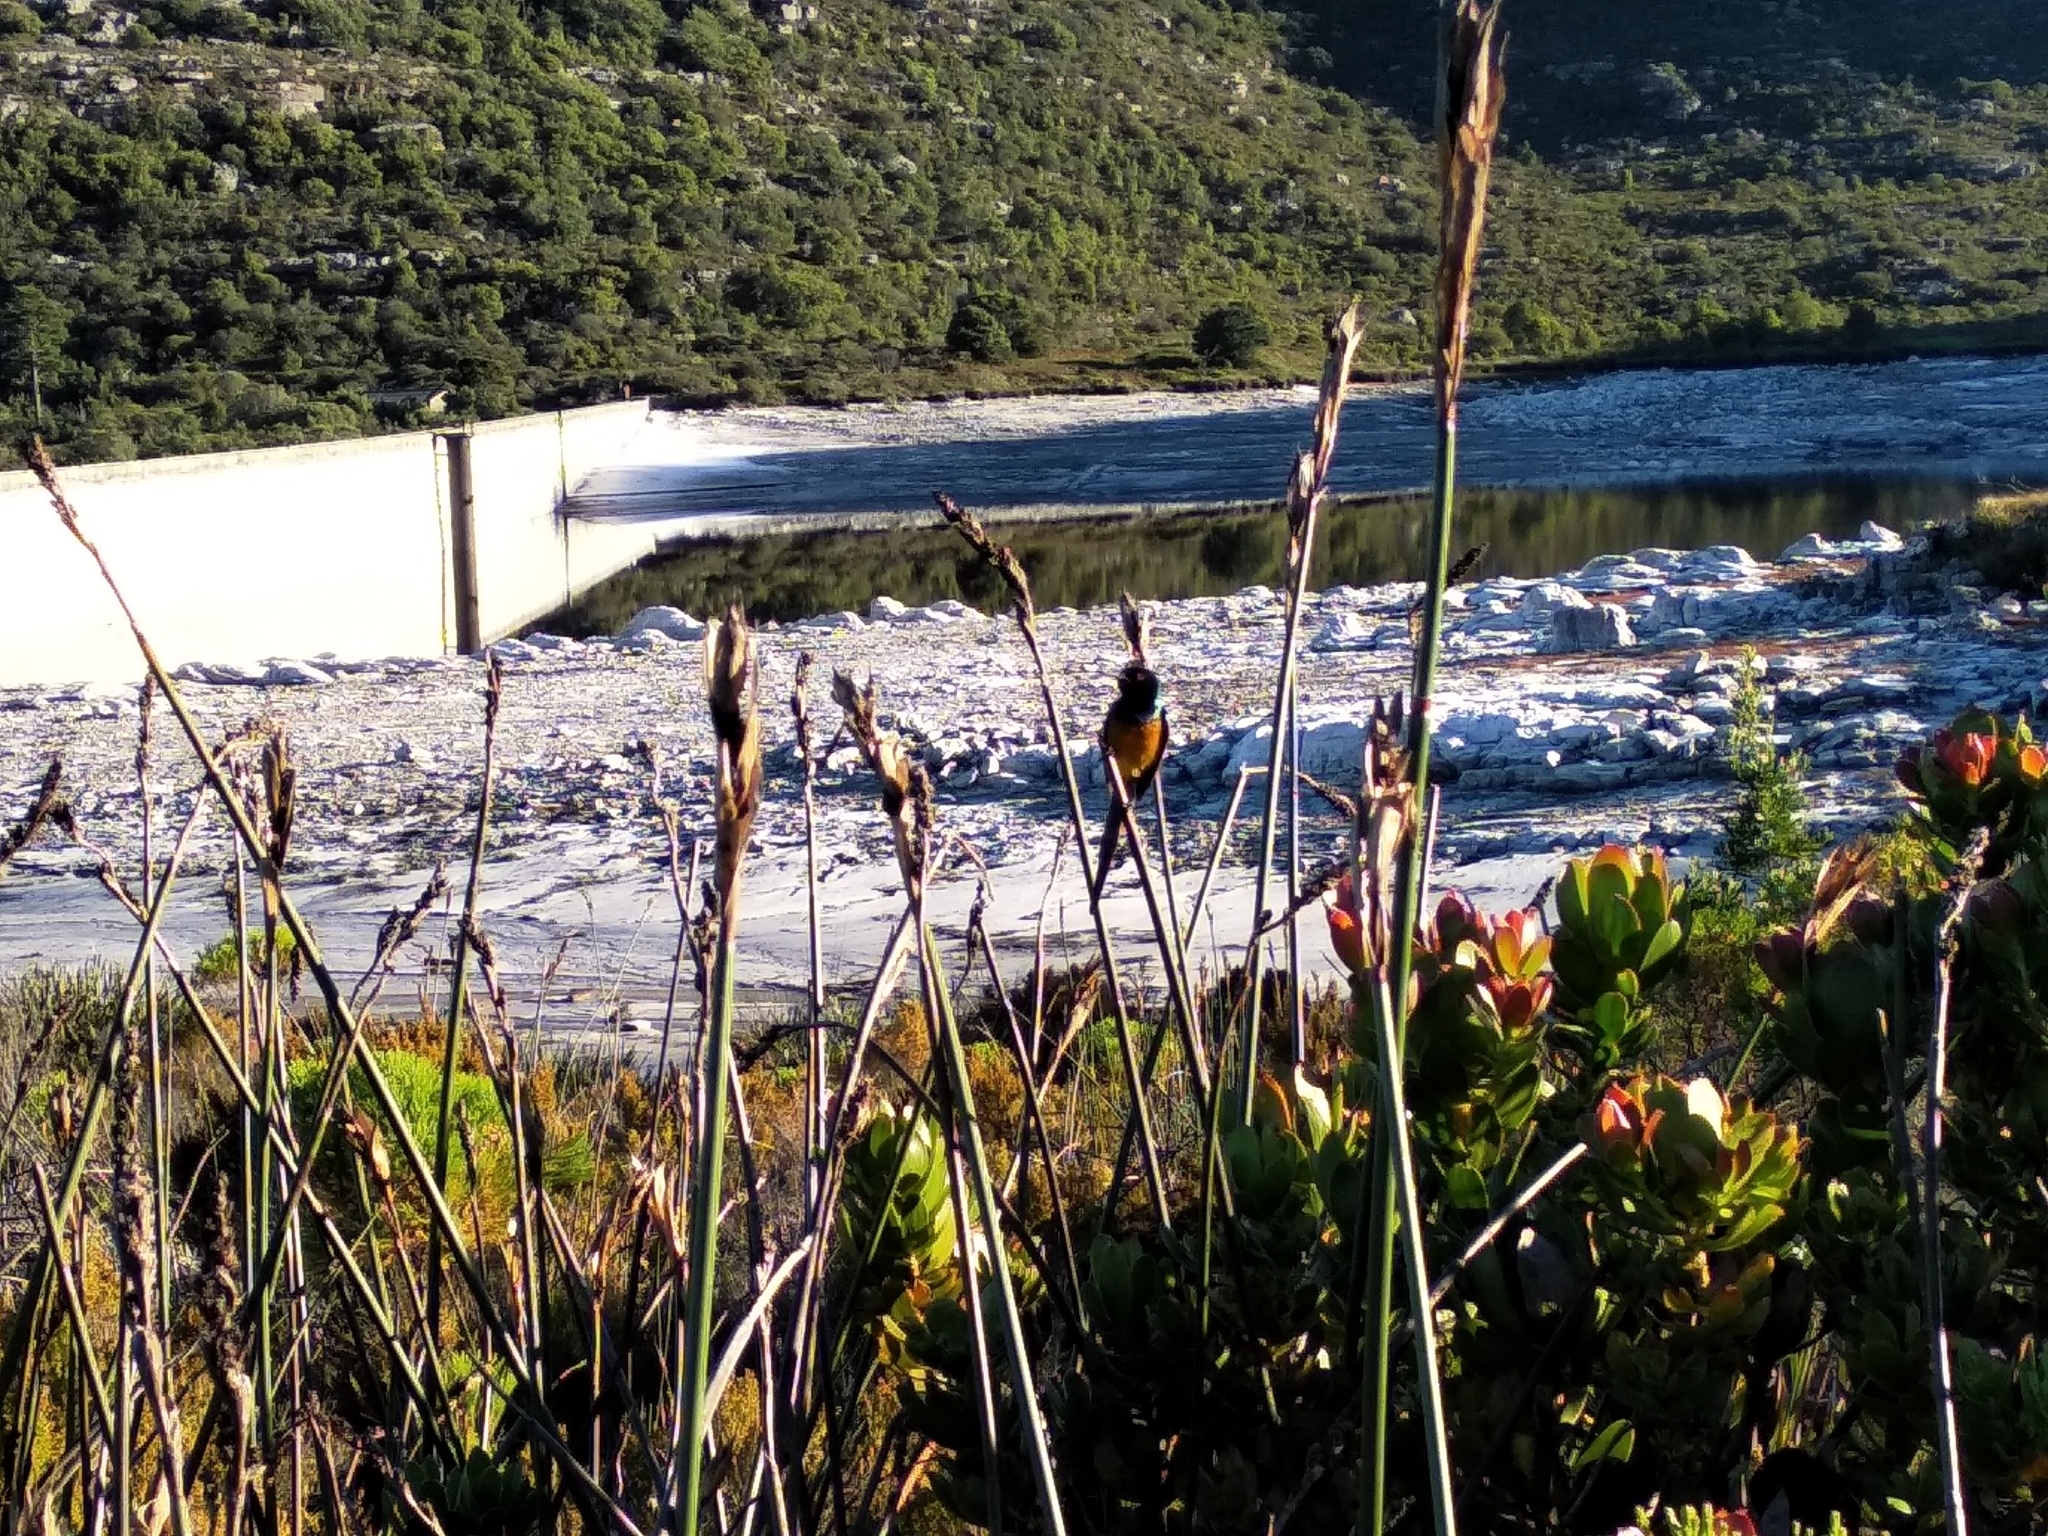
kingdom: Animalia
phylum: Chordata
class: Aves
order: Passeriformes
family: Nectariniidae
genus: Anthobaphes
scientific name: Anthobaphes violacea
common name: Orange-breasted sunbird
